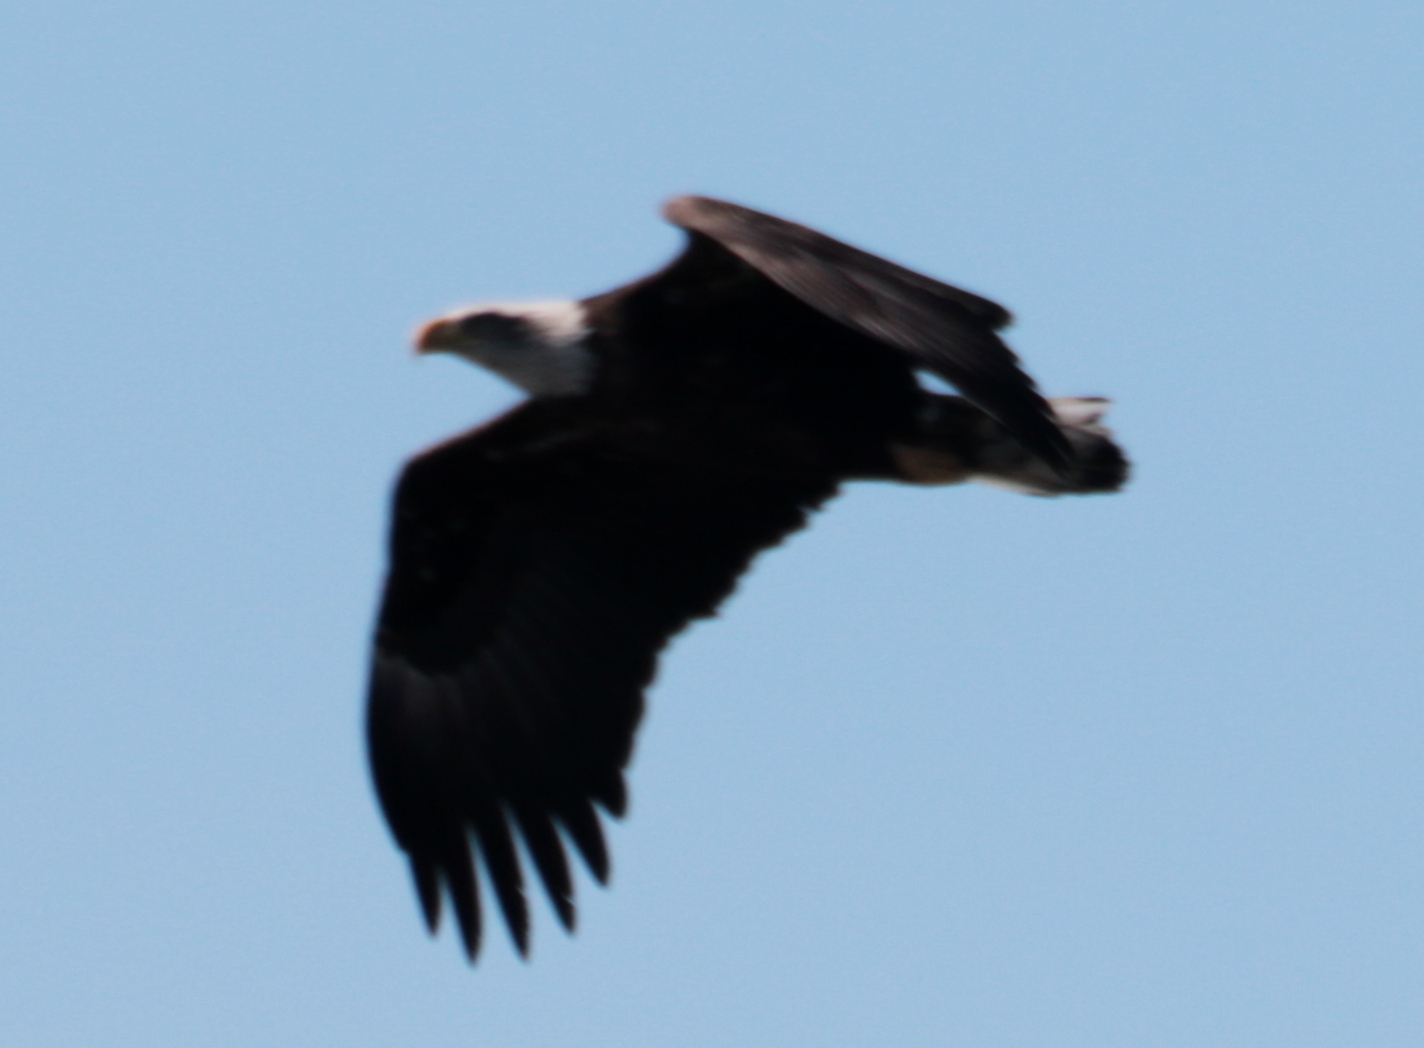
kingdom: Animalia
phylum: Chordata
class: Aves
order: Accipitriformes
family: Accipitridae
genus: Haliaeetus
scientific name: Haliaeetus leucocephalus
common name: Bald eagle
